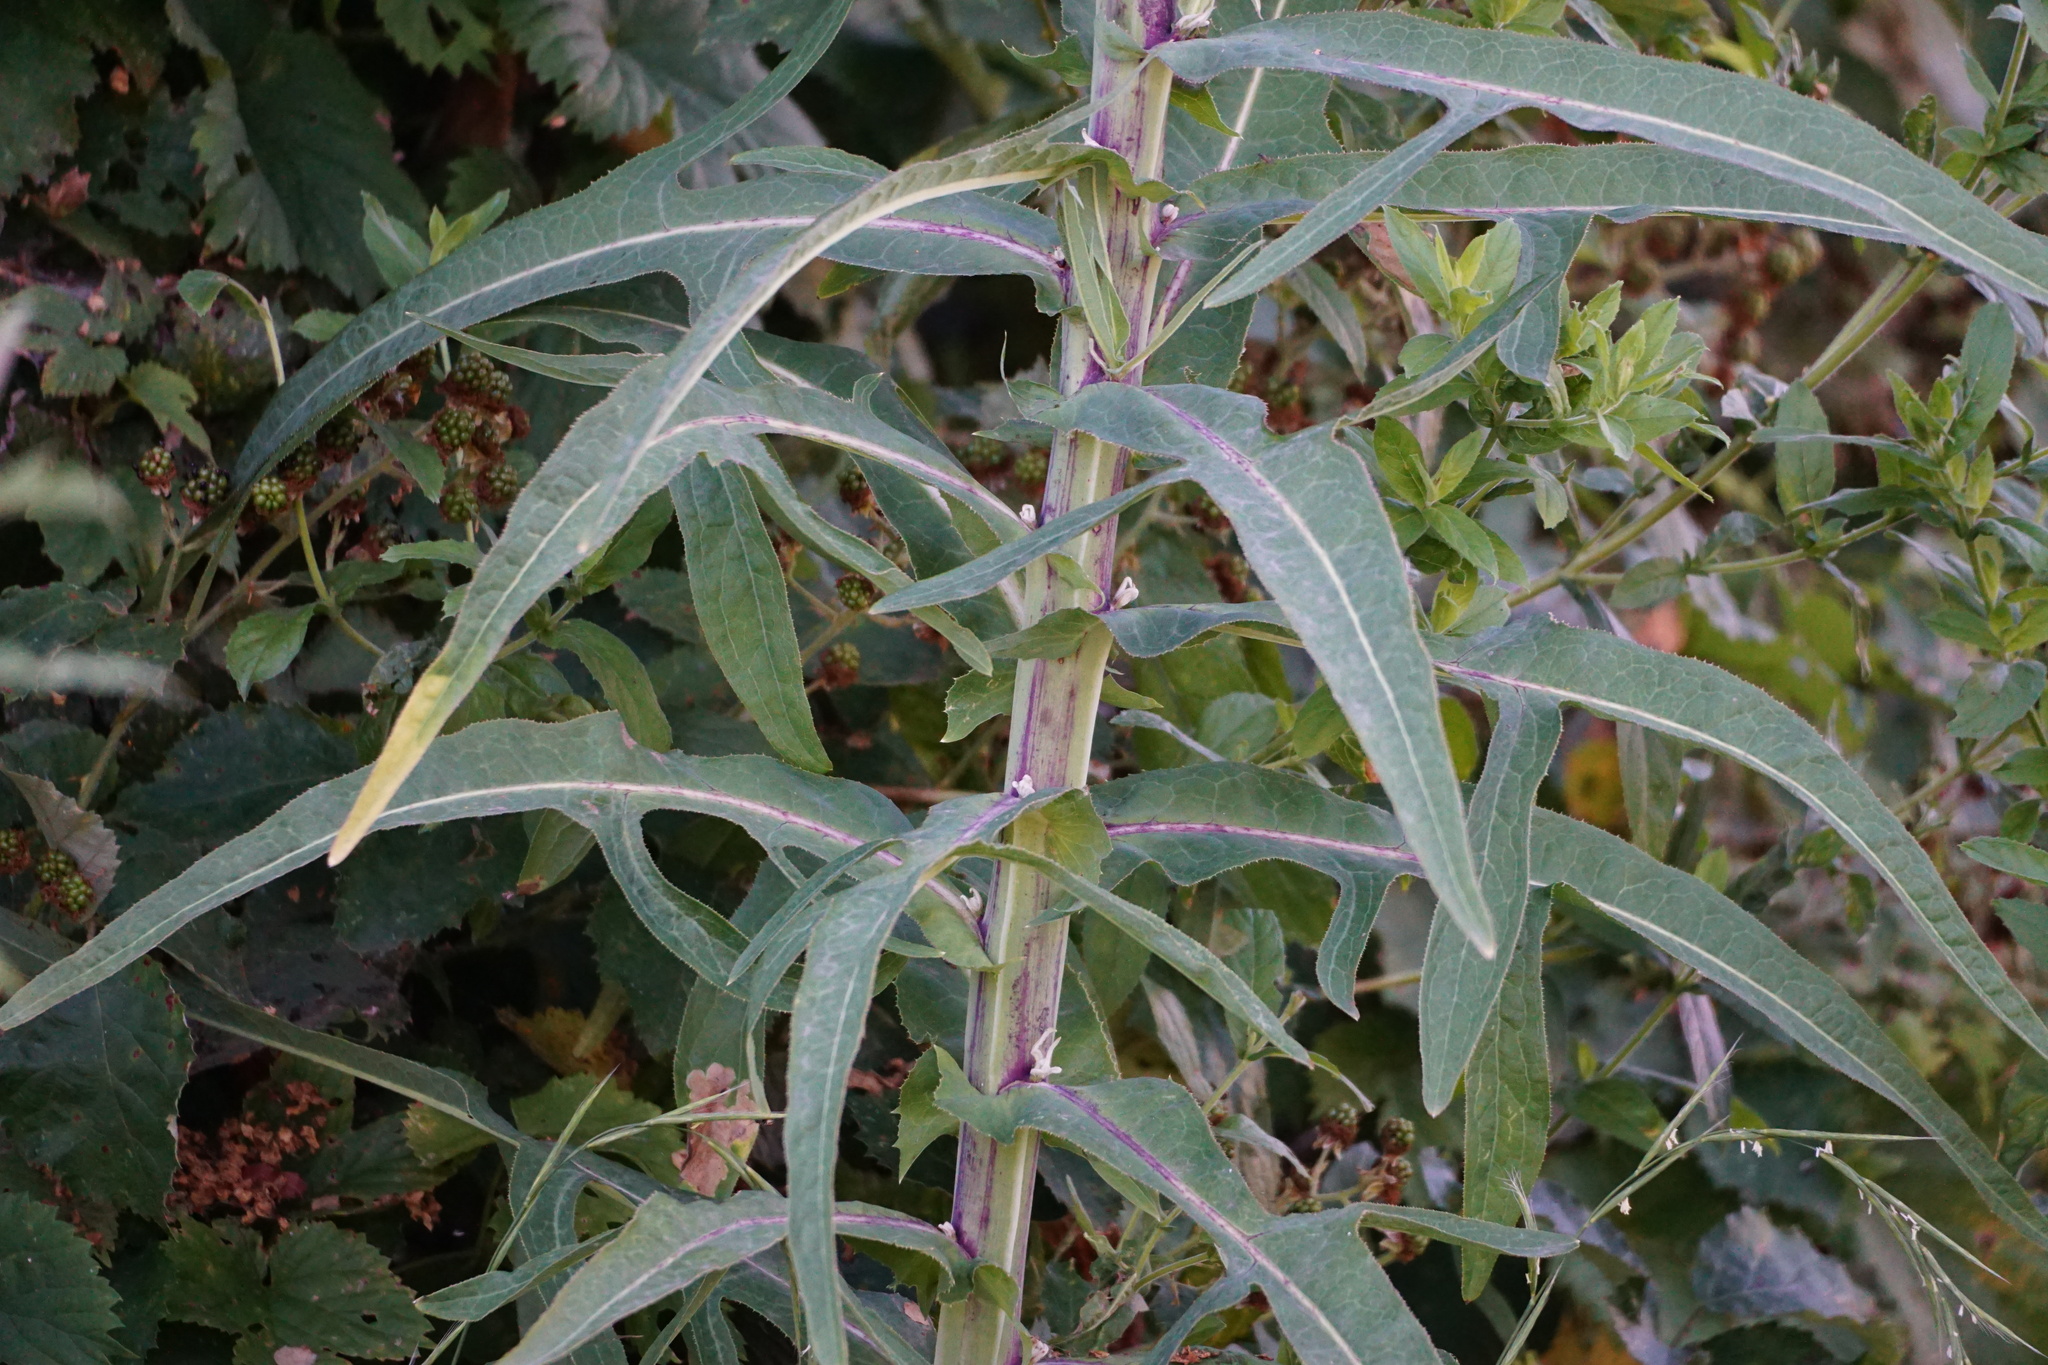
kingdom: Plantae
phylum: Tracheophyta
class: Magnoliopsida
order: Asterales
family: Asteraceae
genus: Sonchus
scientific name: Sonchus palustris
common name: Marsh sow-thistle
